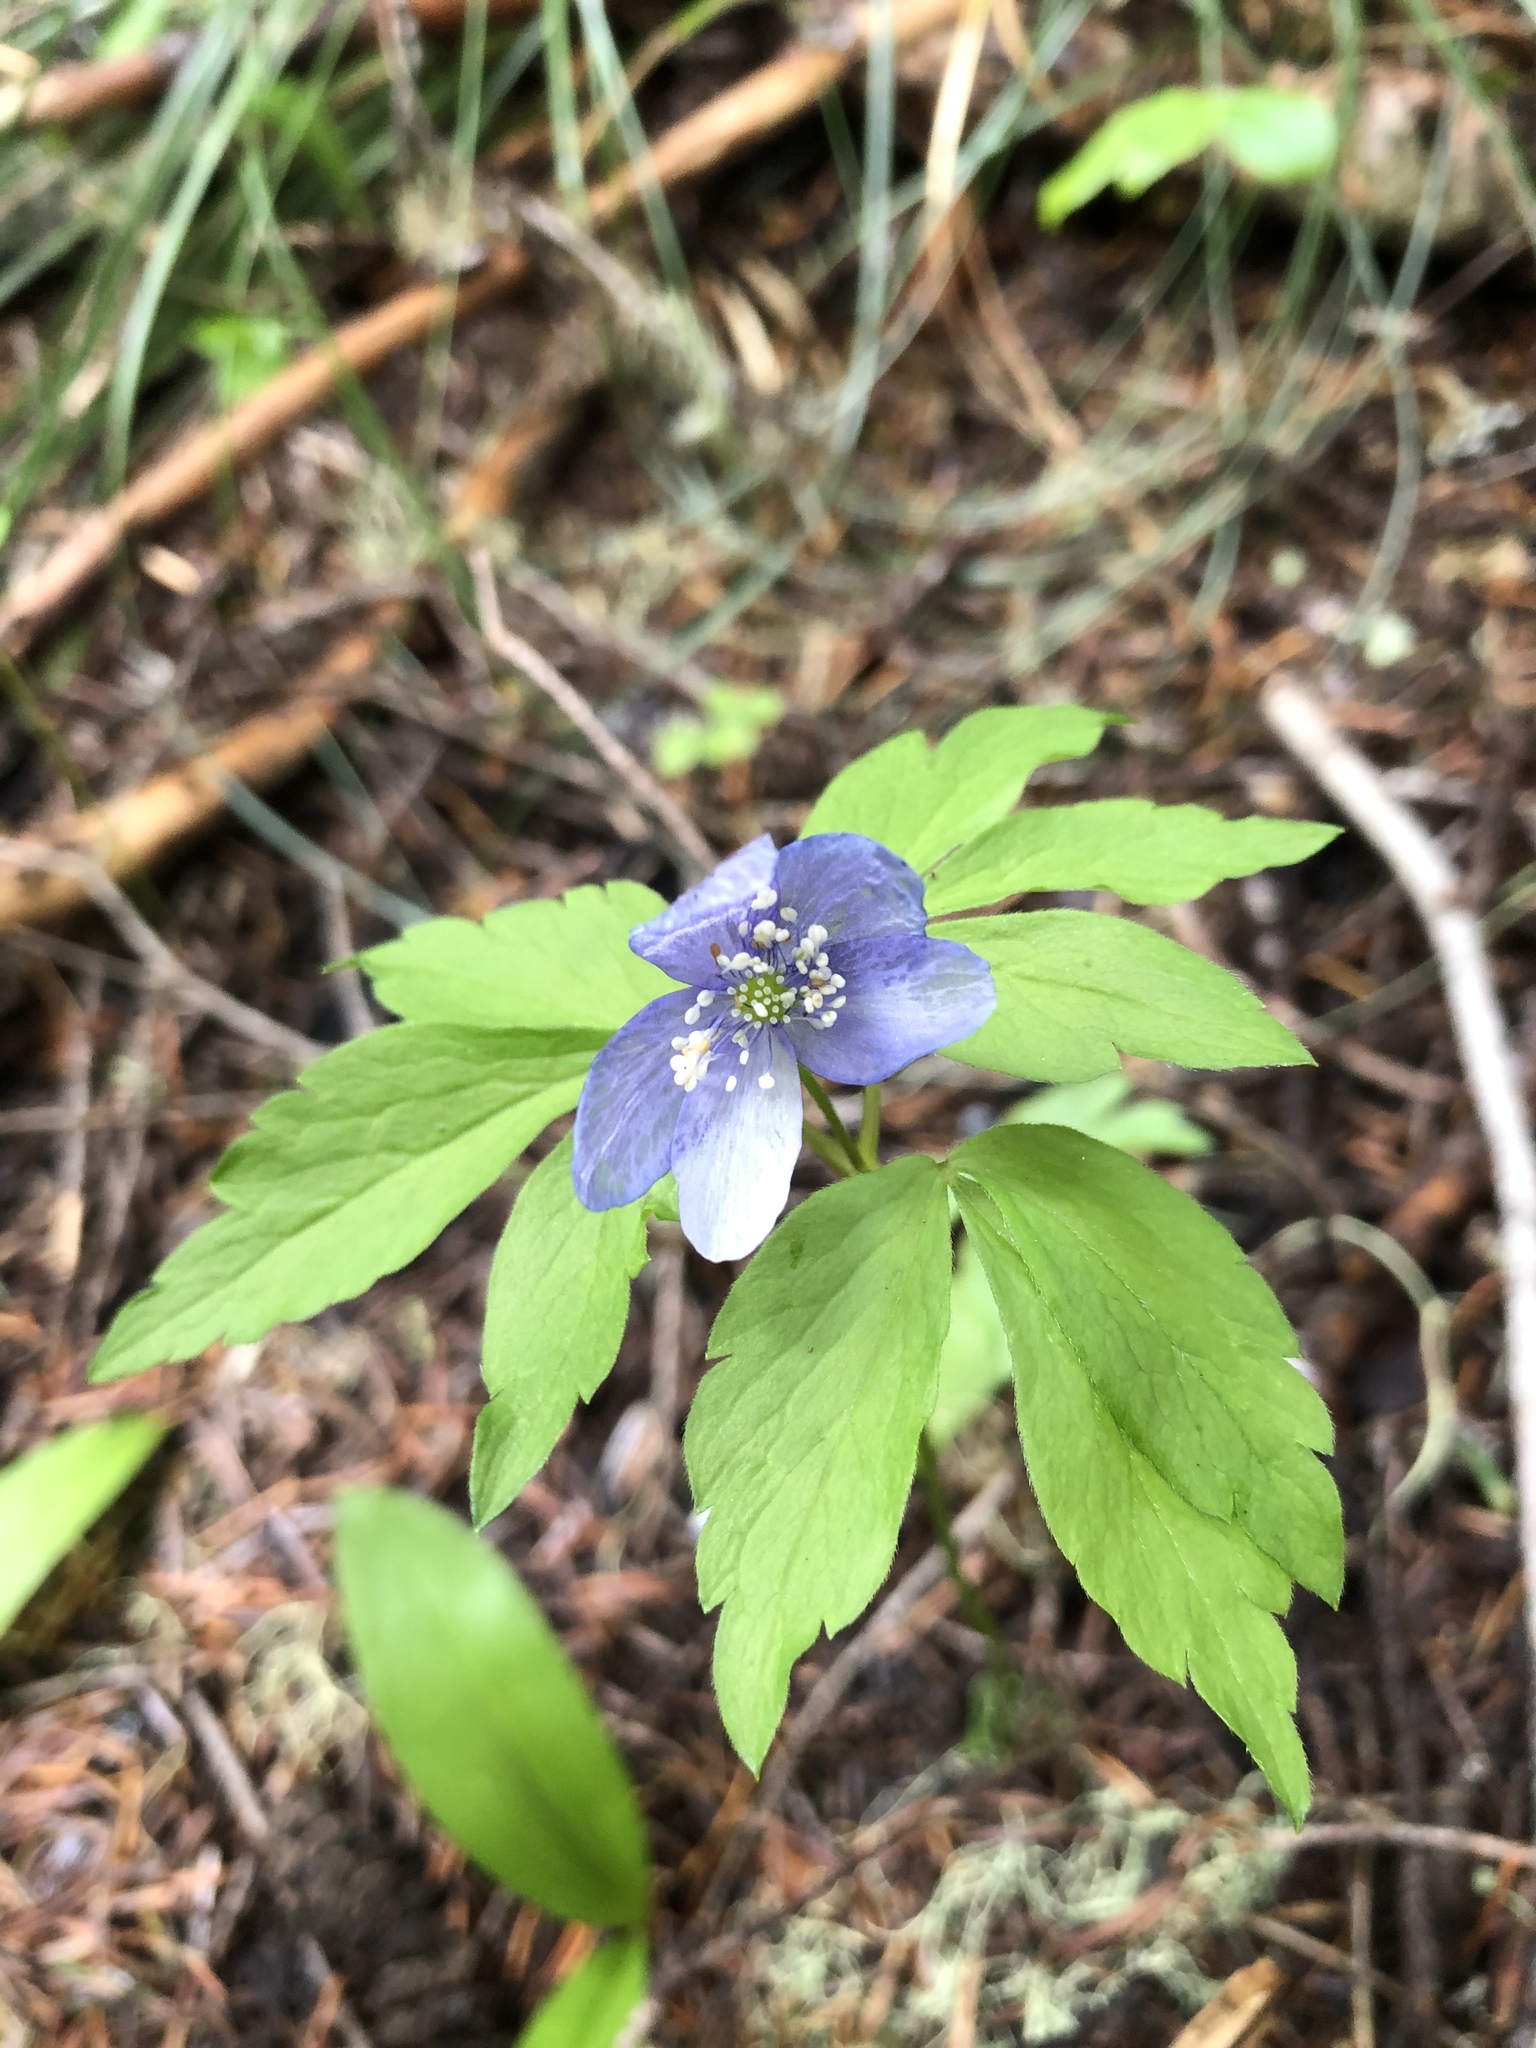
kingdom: Plantae
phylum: Tracheophyta
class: Magnoliopsida
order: Ranunculales
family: Ranunculaceae
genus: Anemone
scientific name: Anemone oregana
